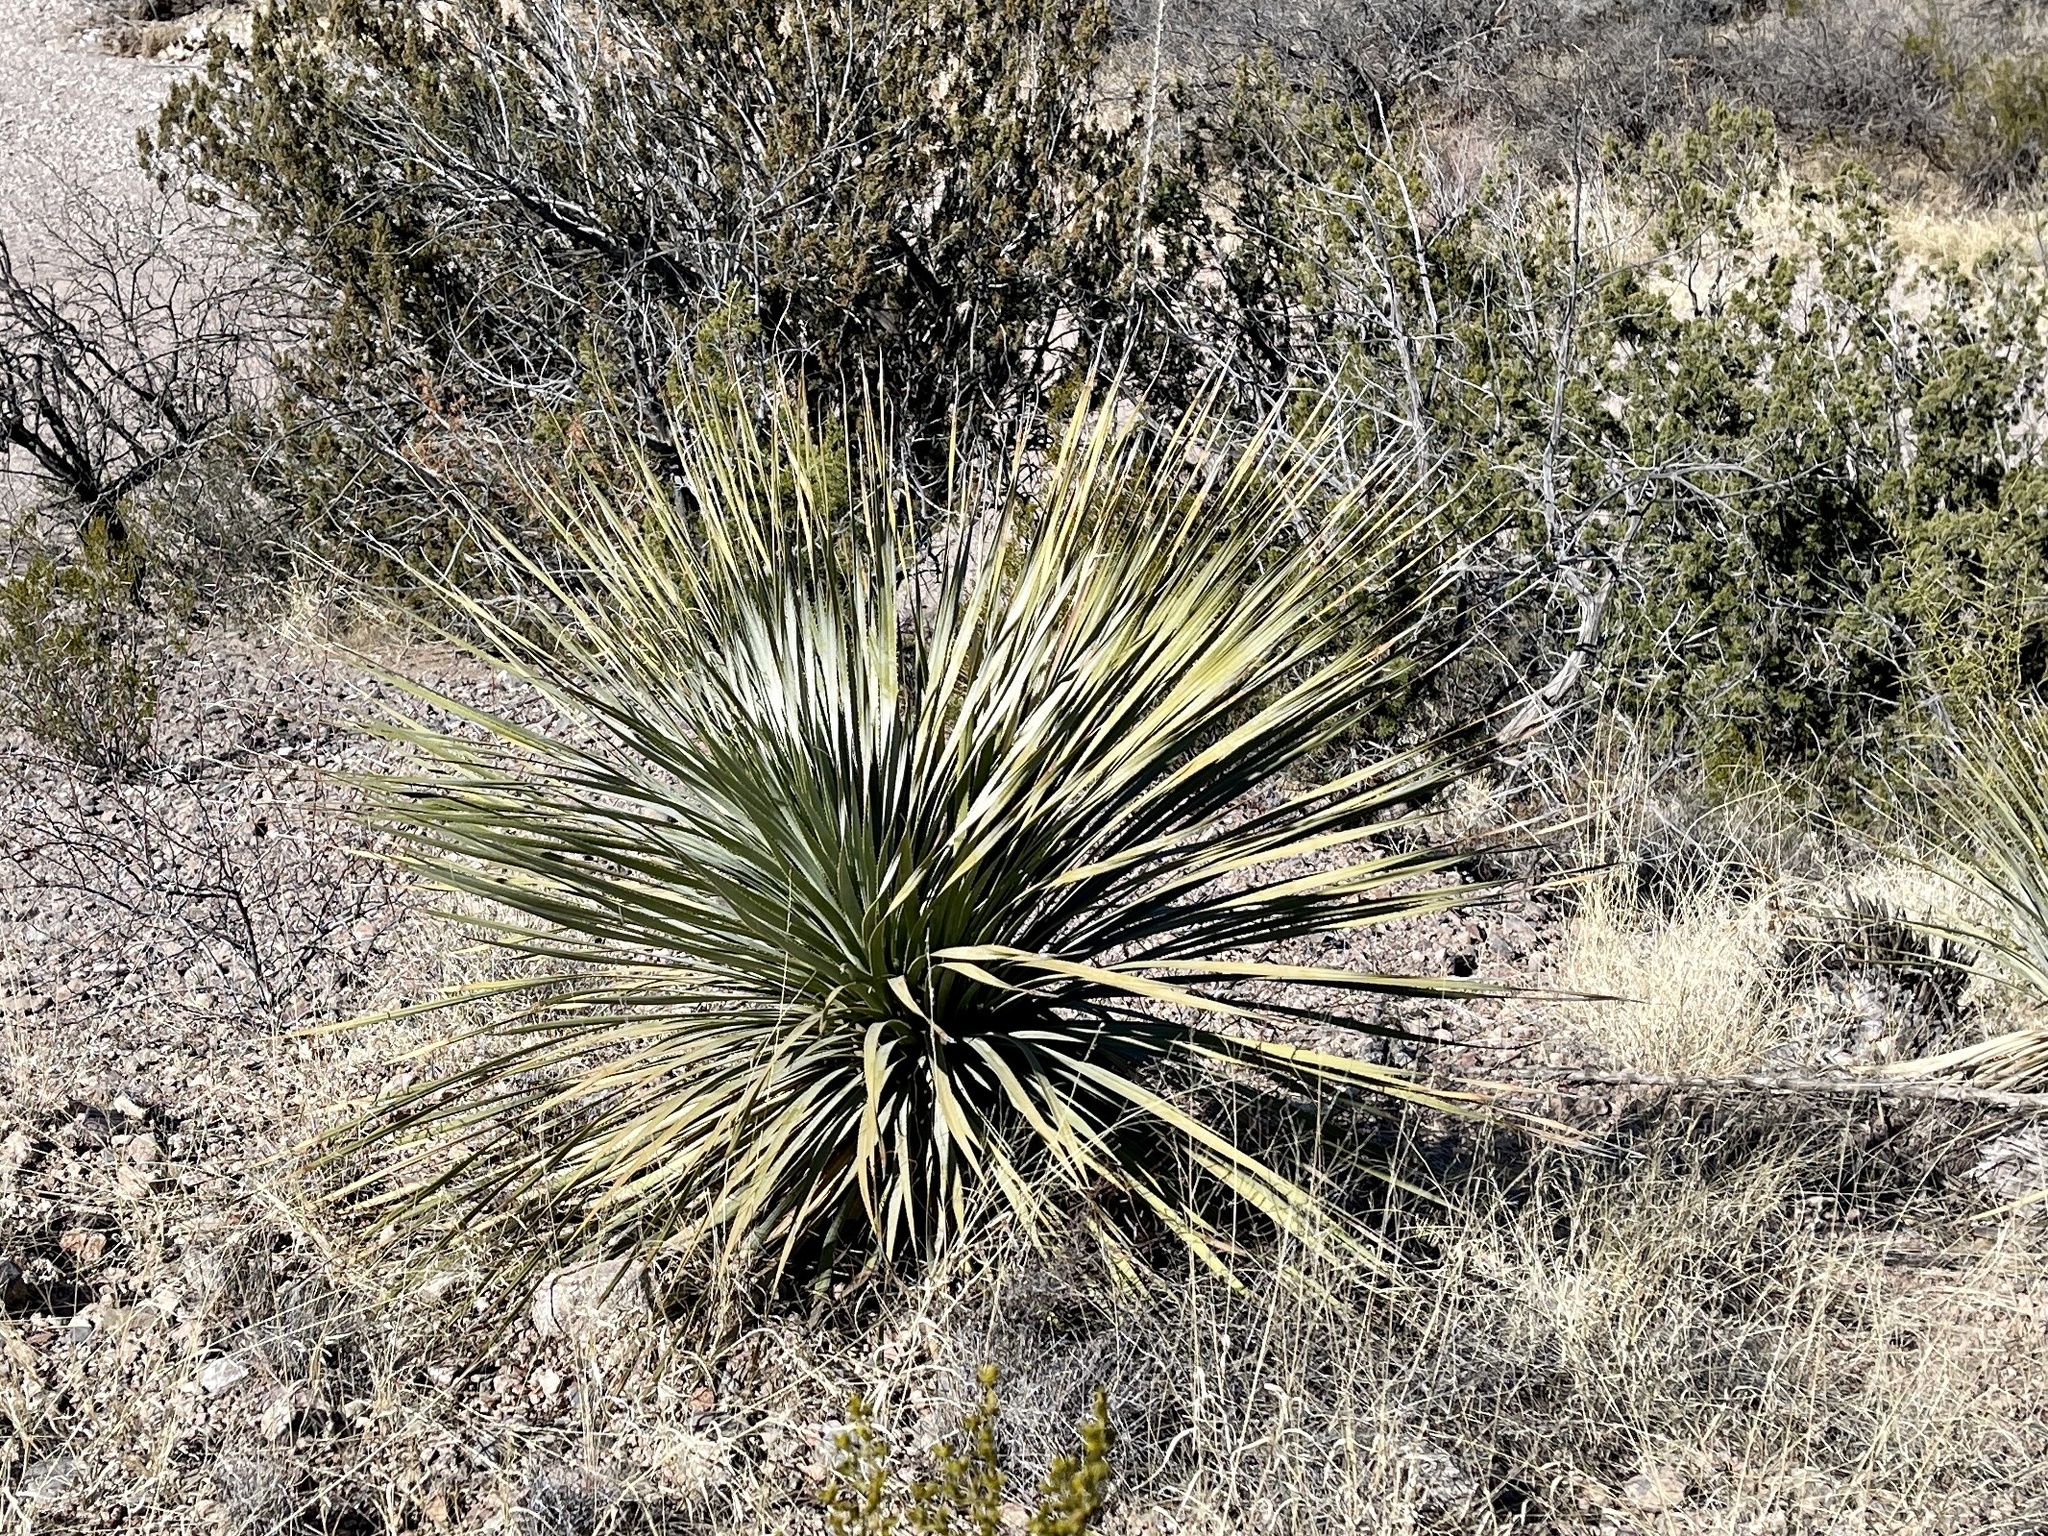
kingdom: Plantae
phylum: Tracheophyta
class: Liliopsida
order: Asparagales
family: Asparagaceae
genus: Dasylirion
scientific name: Dasylirion wheeleri
